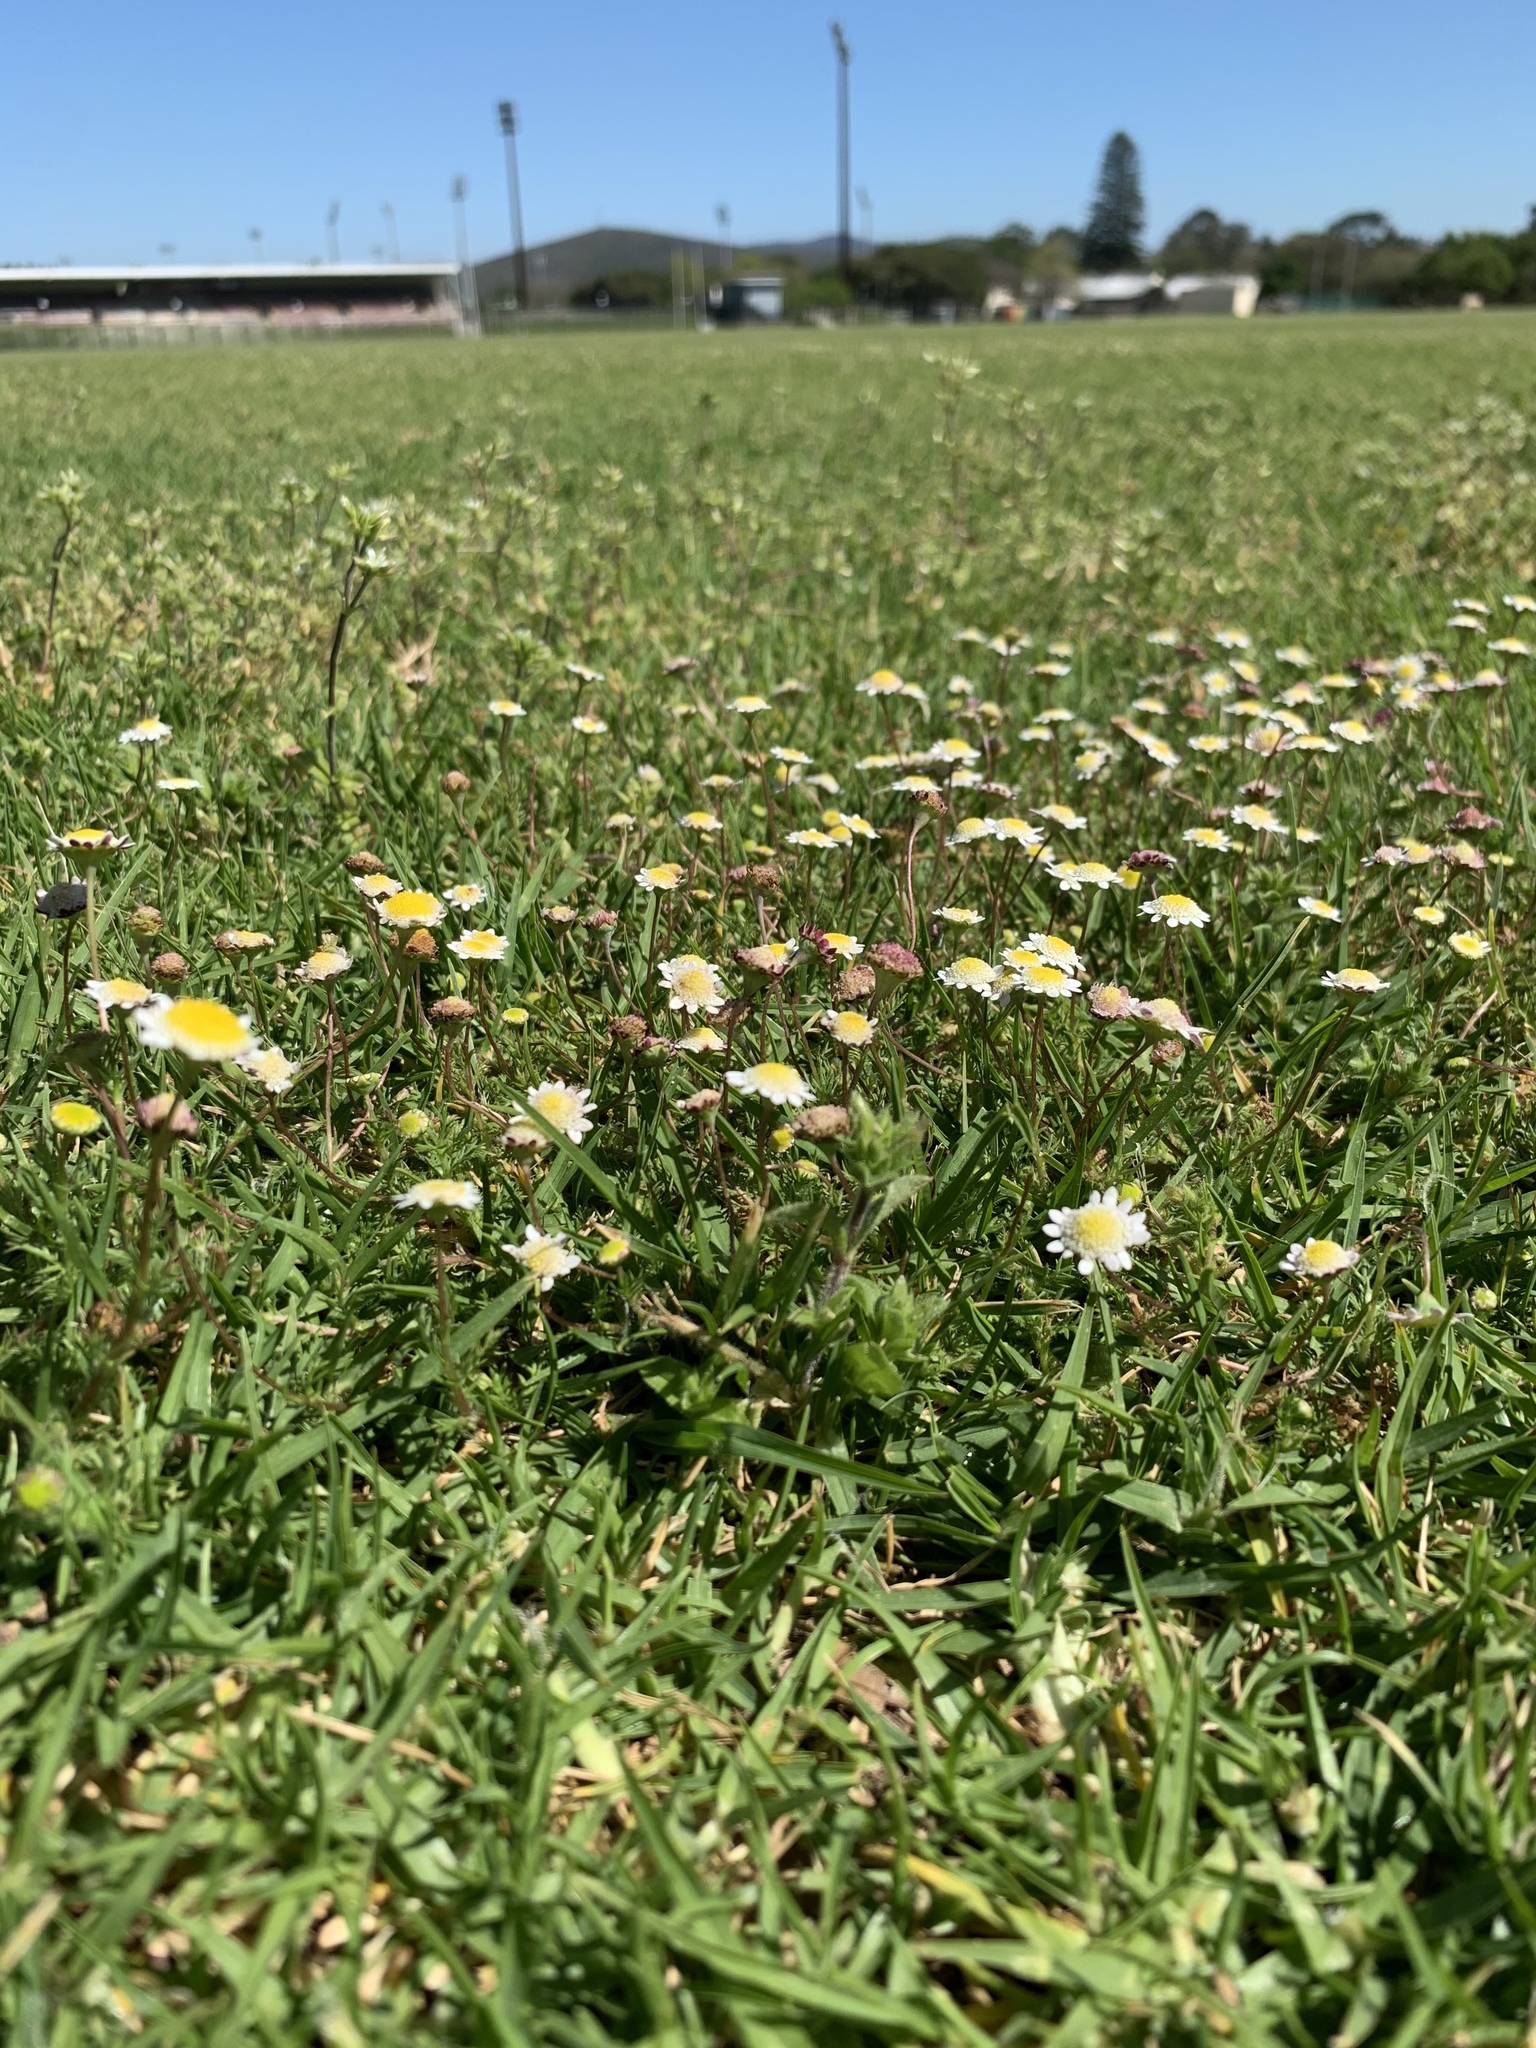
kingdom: Plantae
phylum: Tracheophyta
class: Magnoliopsida
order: Asterales
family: Asteraceae
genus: Cotula
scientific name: Cotula turbinata
